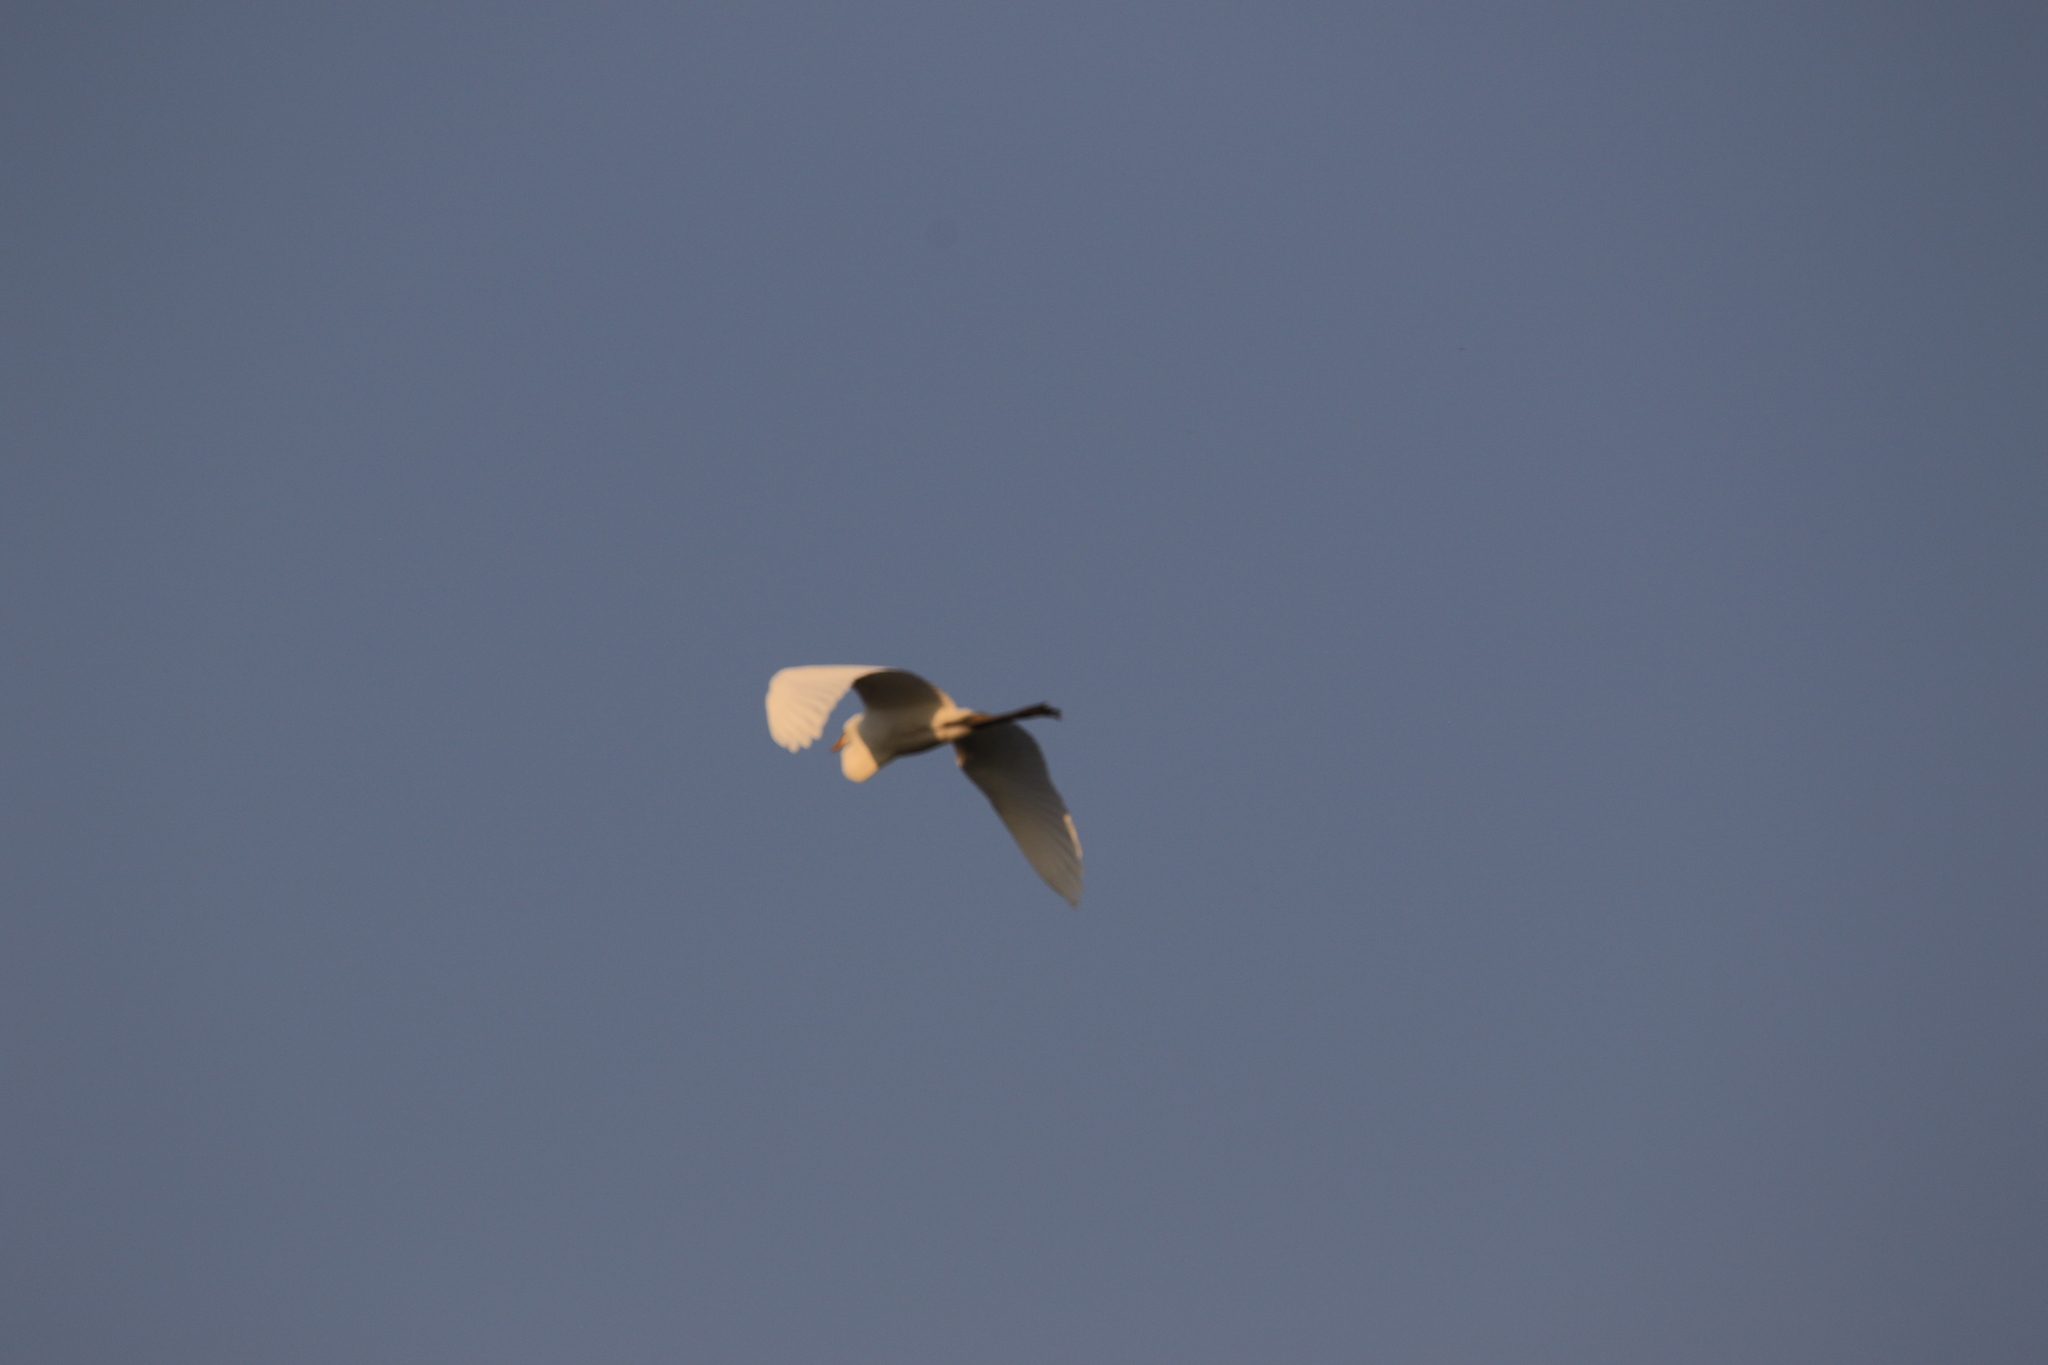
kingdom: Animalia
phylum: Chordata
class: Aves
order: Pelecaniformes
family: Ardeidae
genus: Ardea
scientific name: Ardea alba
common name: Great egret
